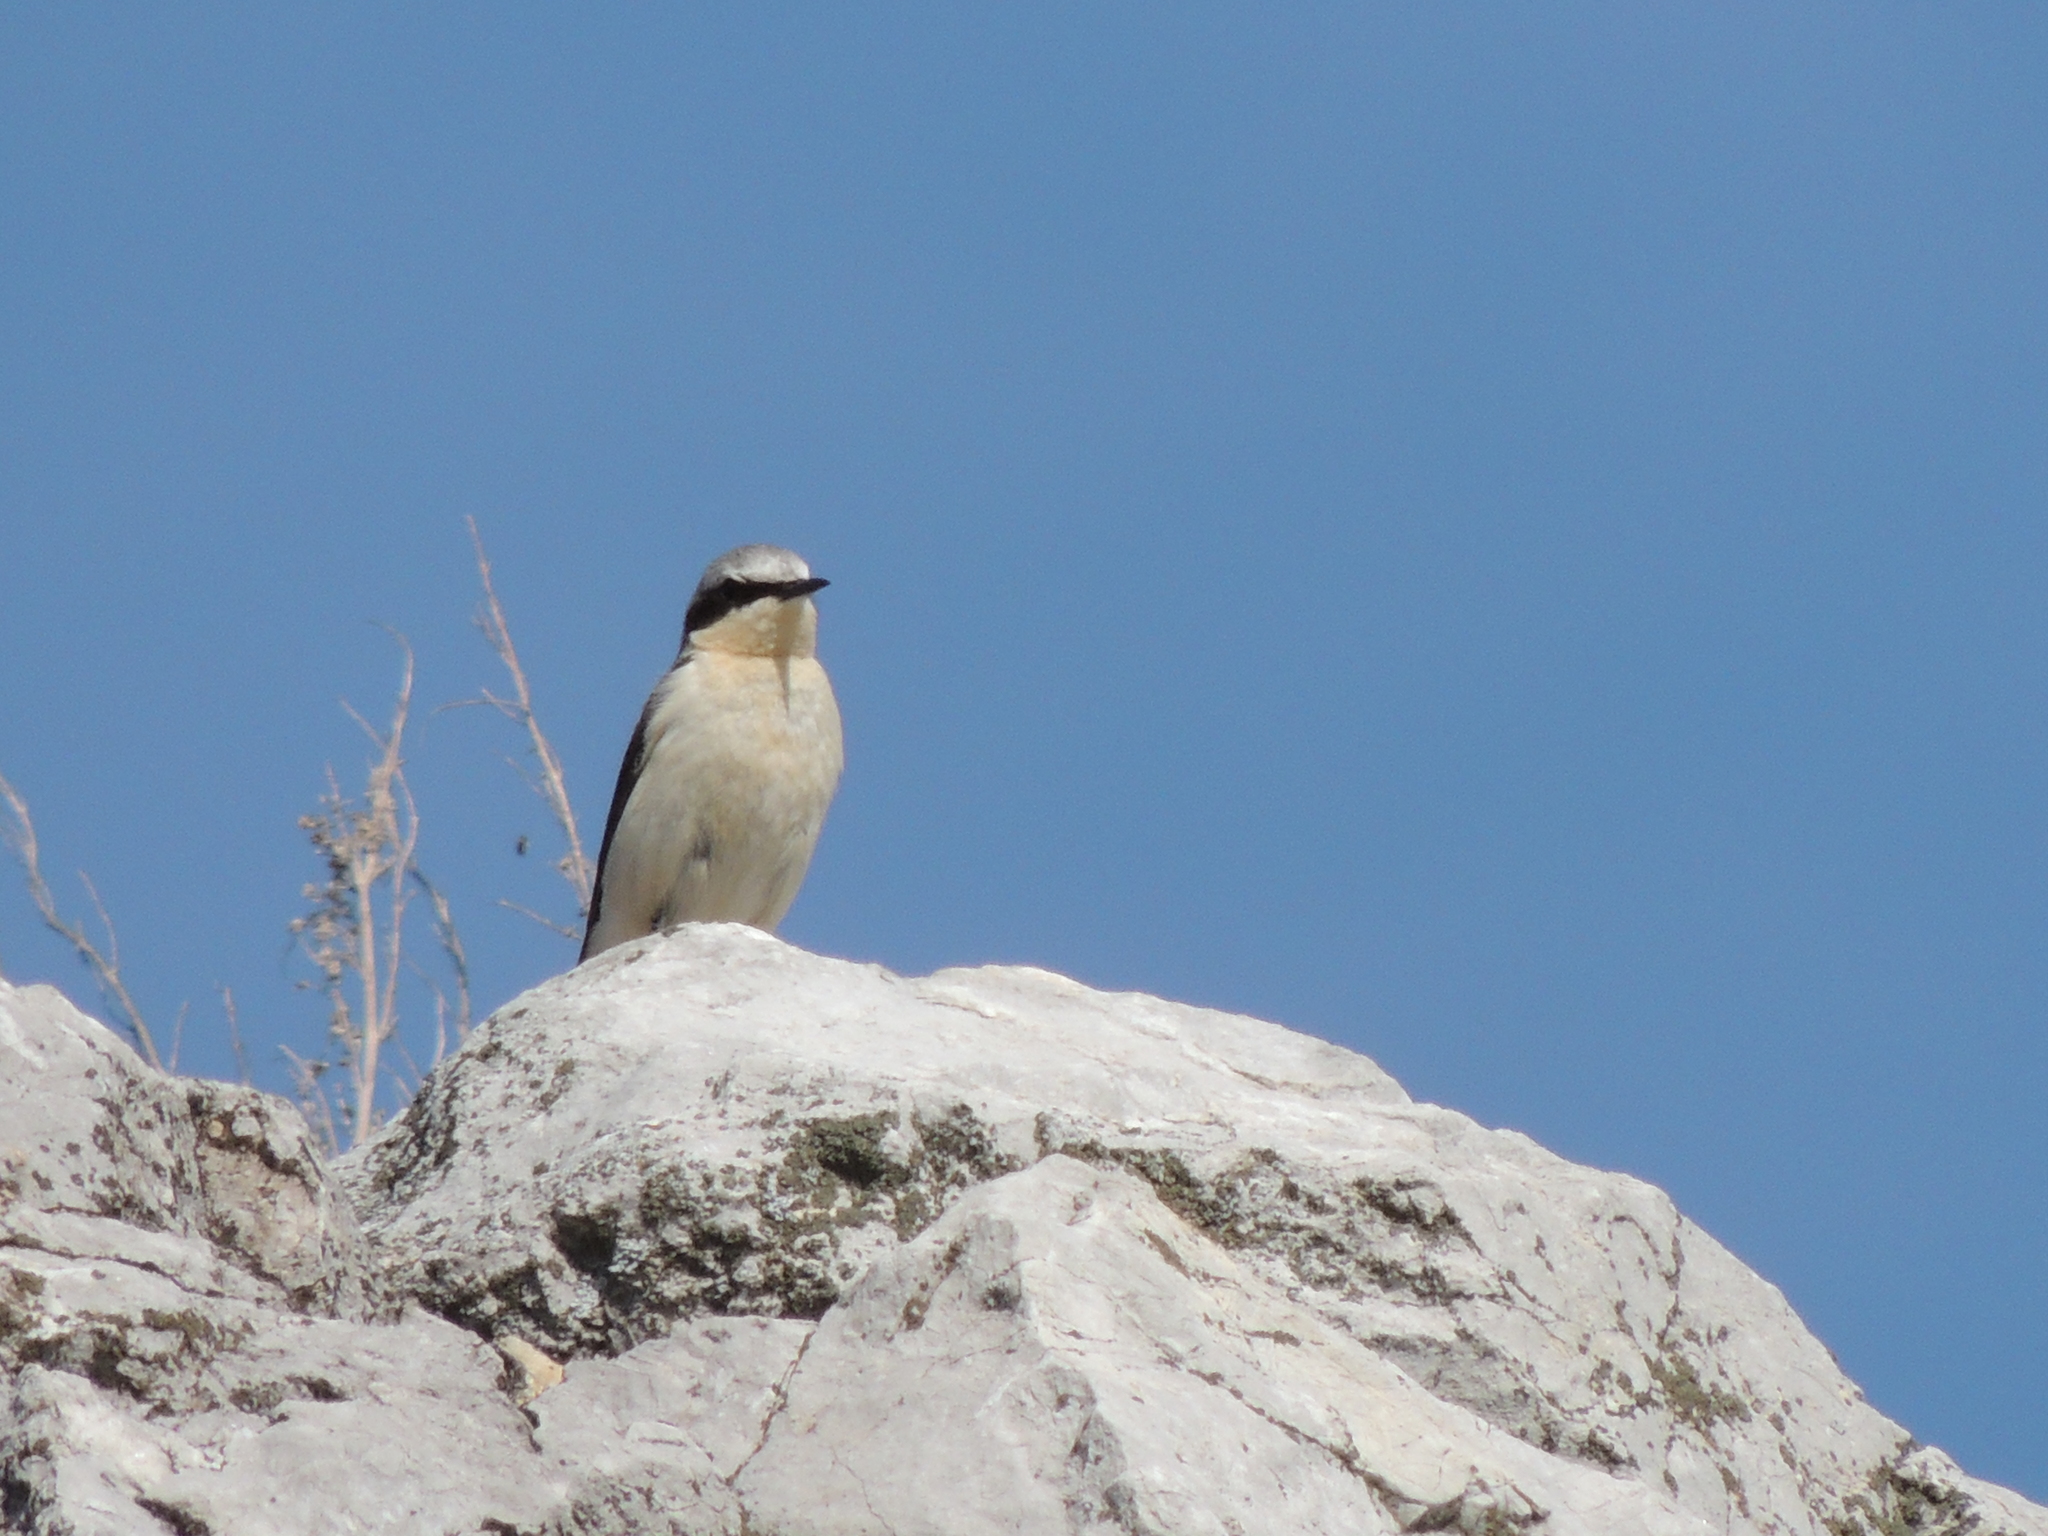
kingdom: Animalia
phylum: Chordata
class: Aves
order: Passeriformes
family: Muscicapidae
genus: Oenanthe
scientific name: Oenanthe oenanthe
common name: Northern wheatear
